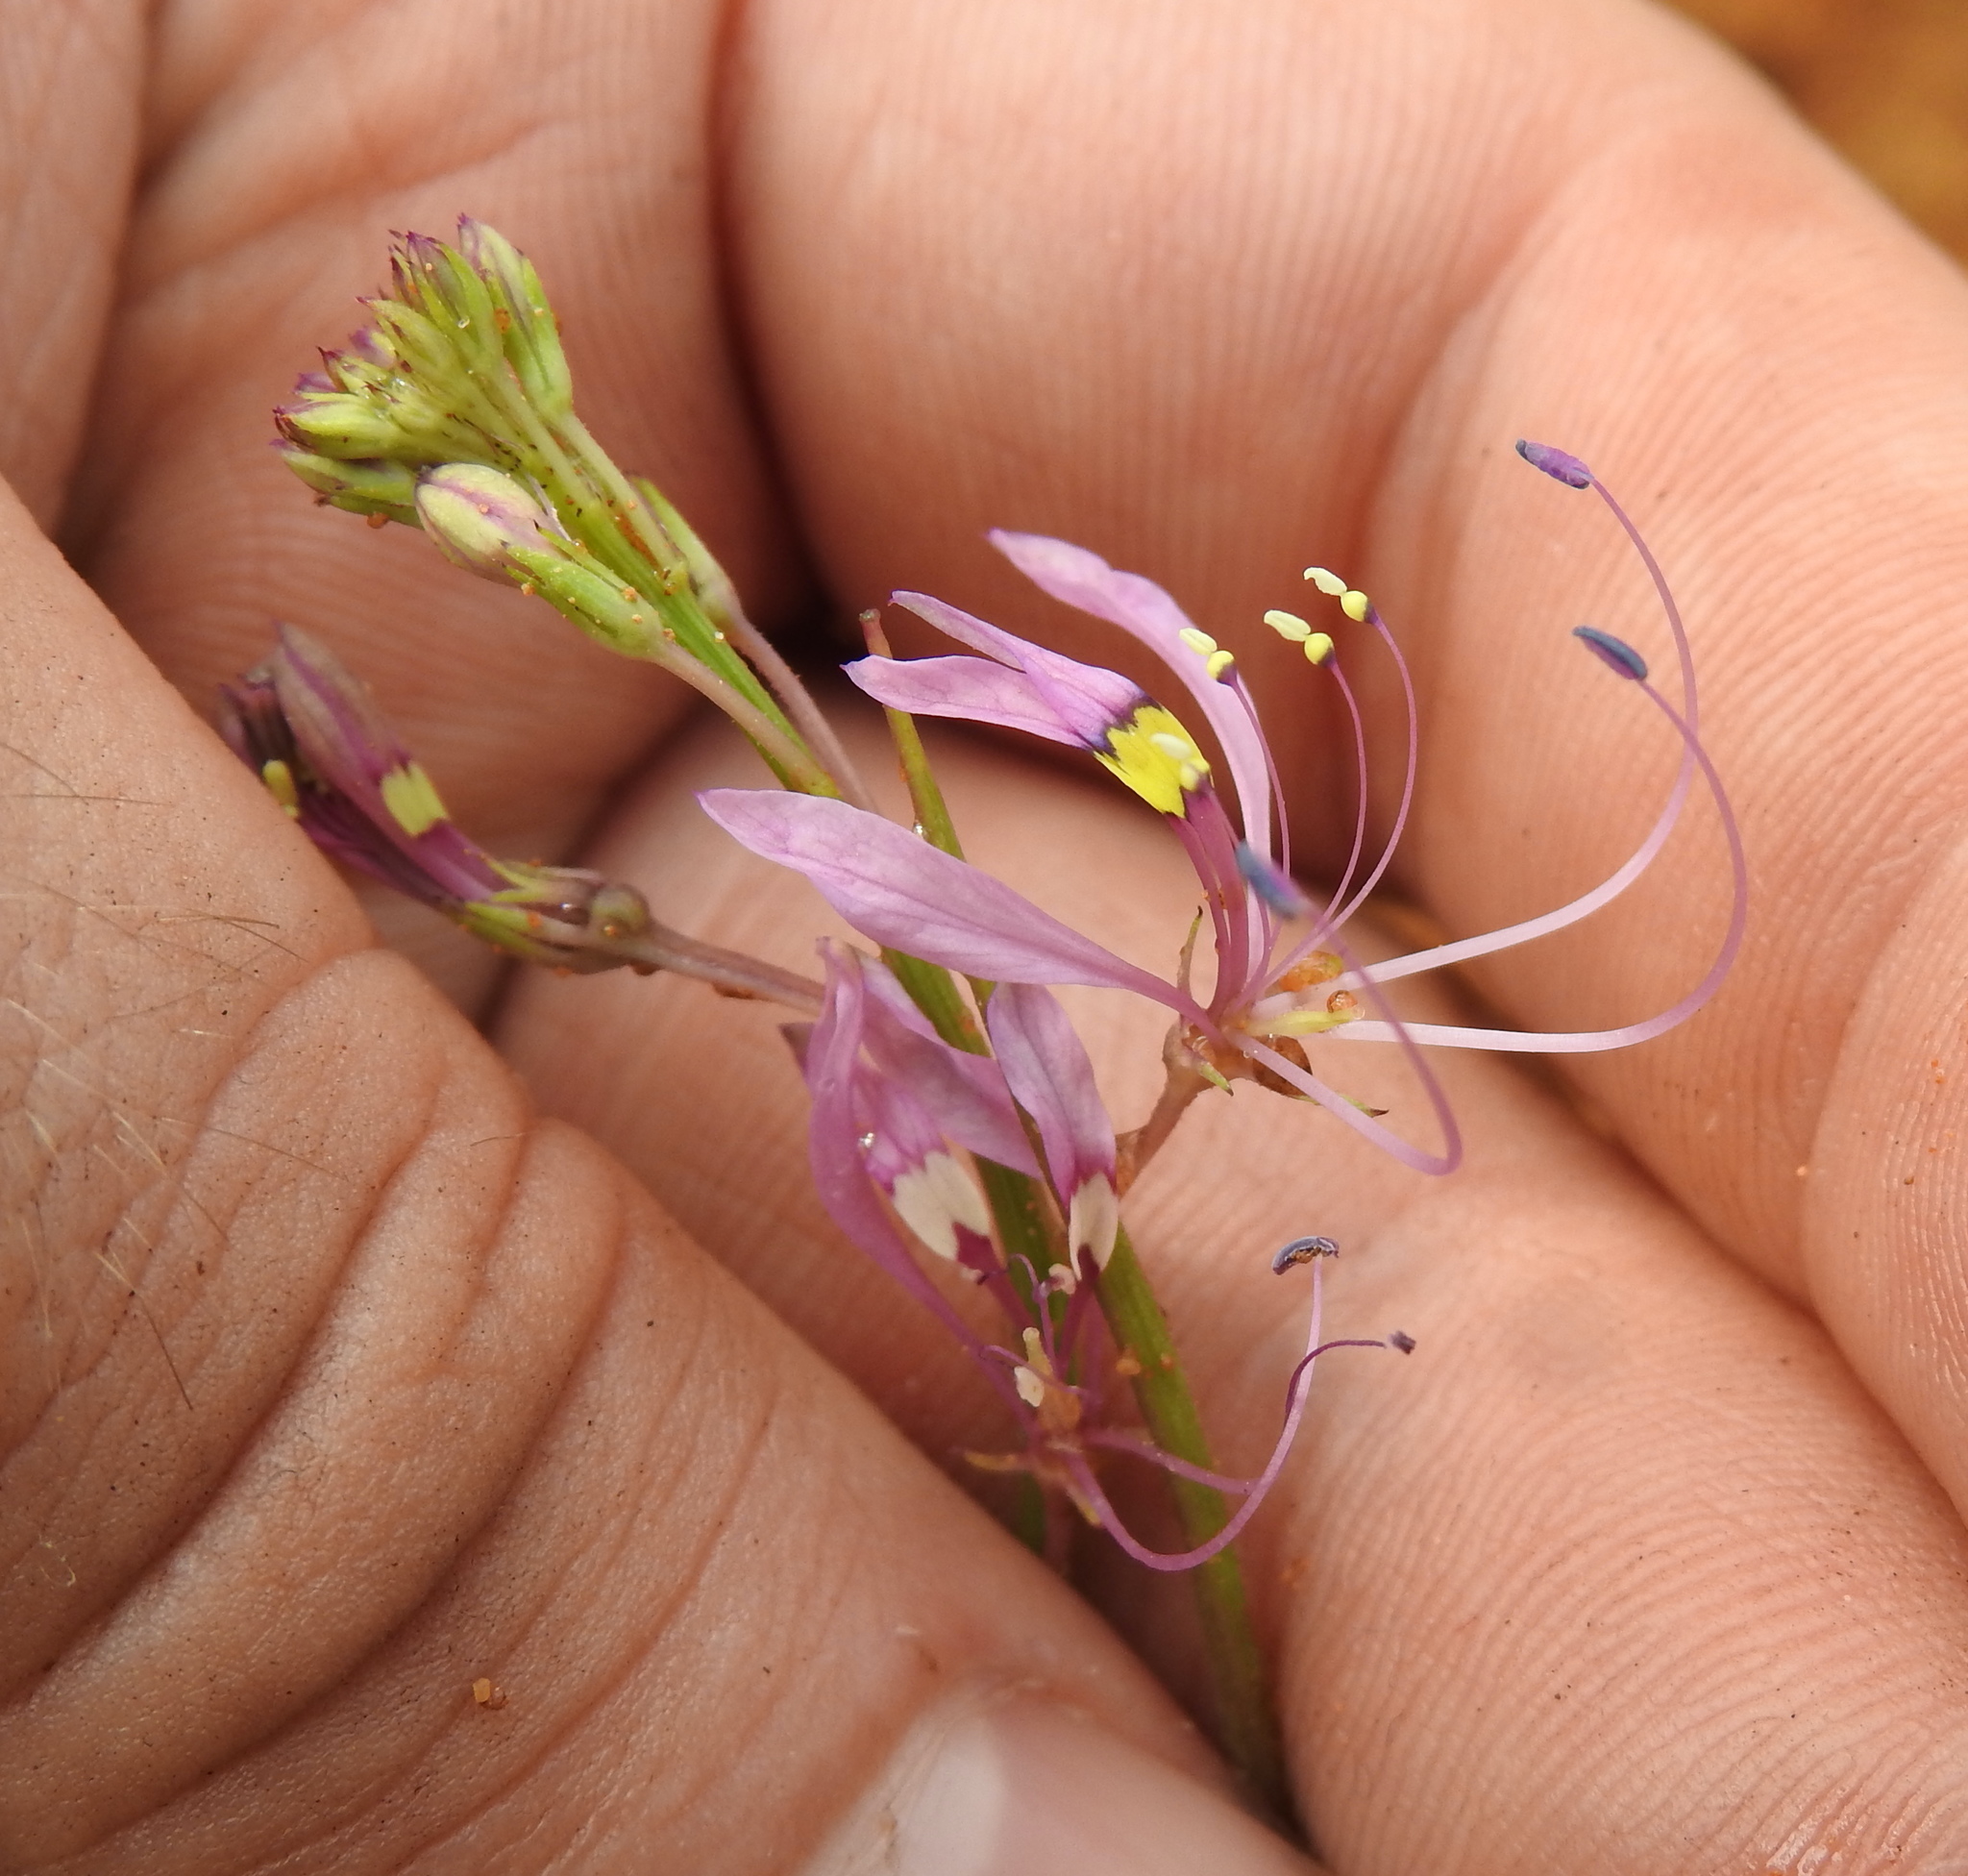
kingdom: Plantae
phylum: Tracheophyta
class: Magnoliopsida
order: Brassicales
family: Cleomaceae
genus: Sieruela
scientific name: Sieruela maculata
